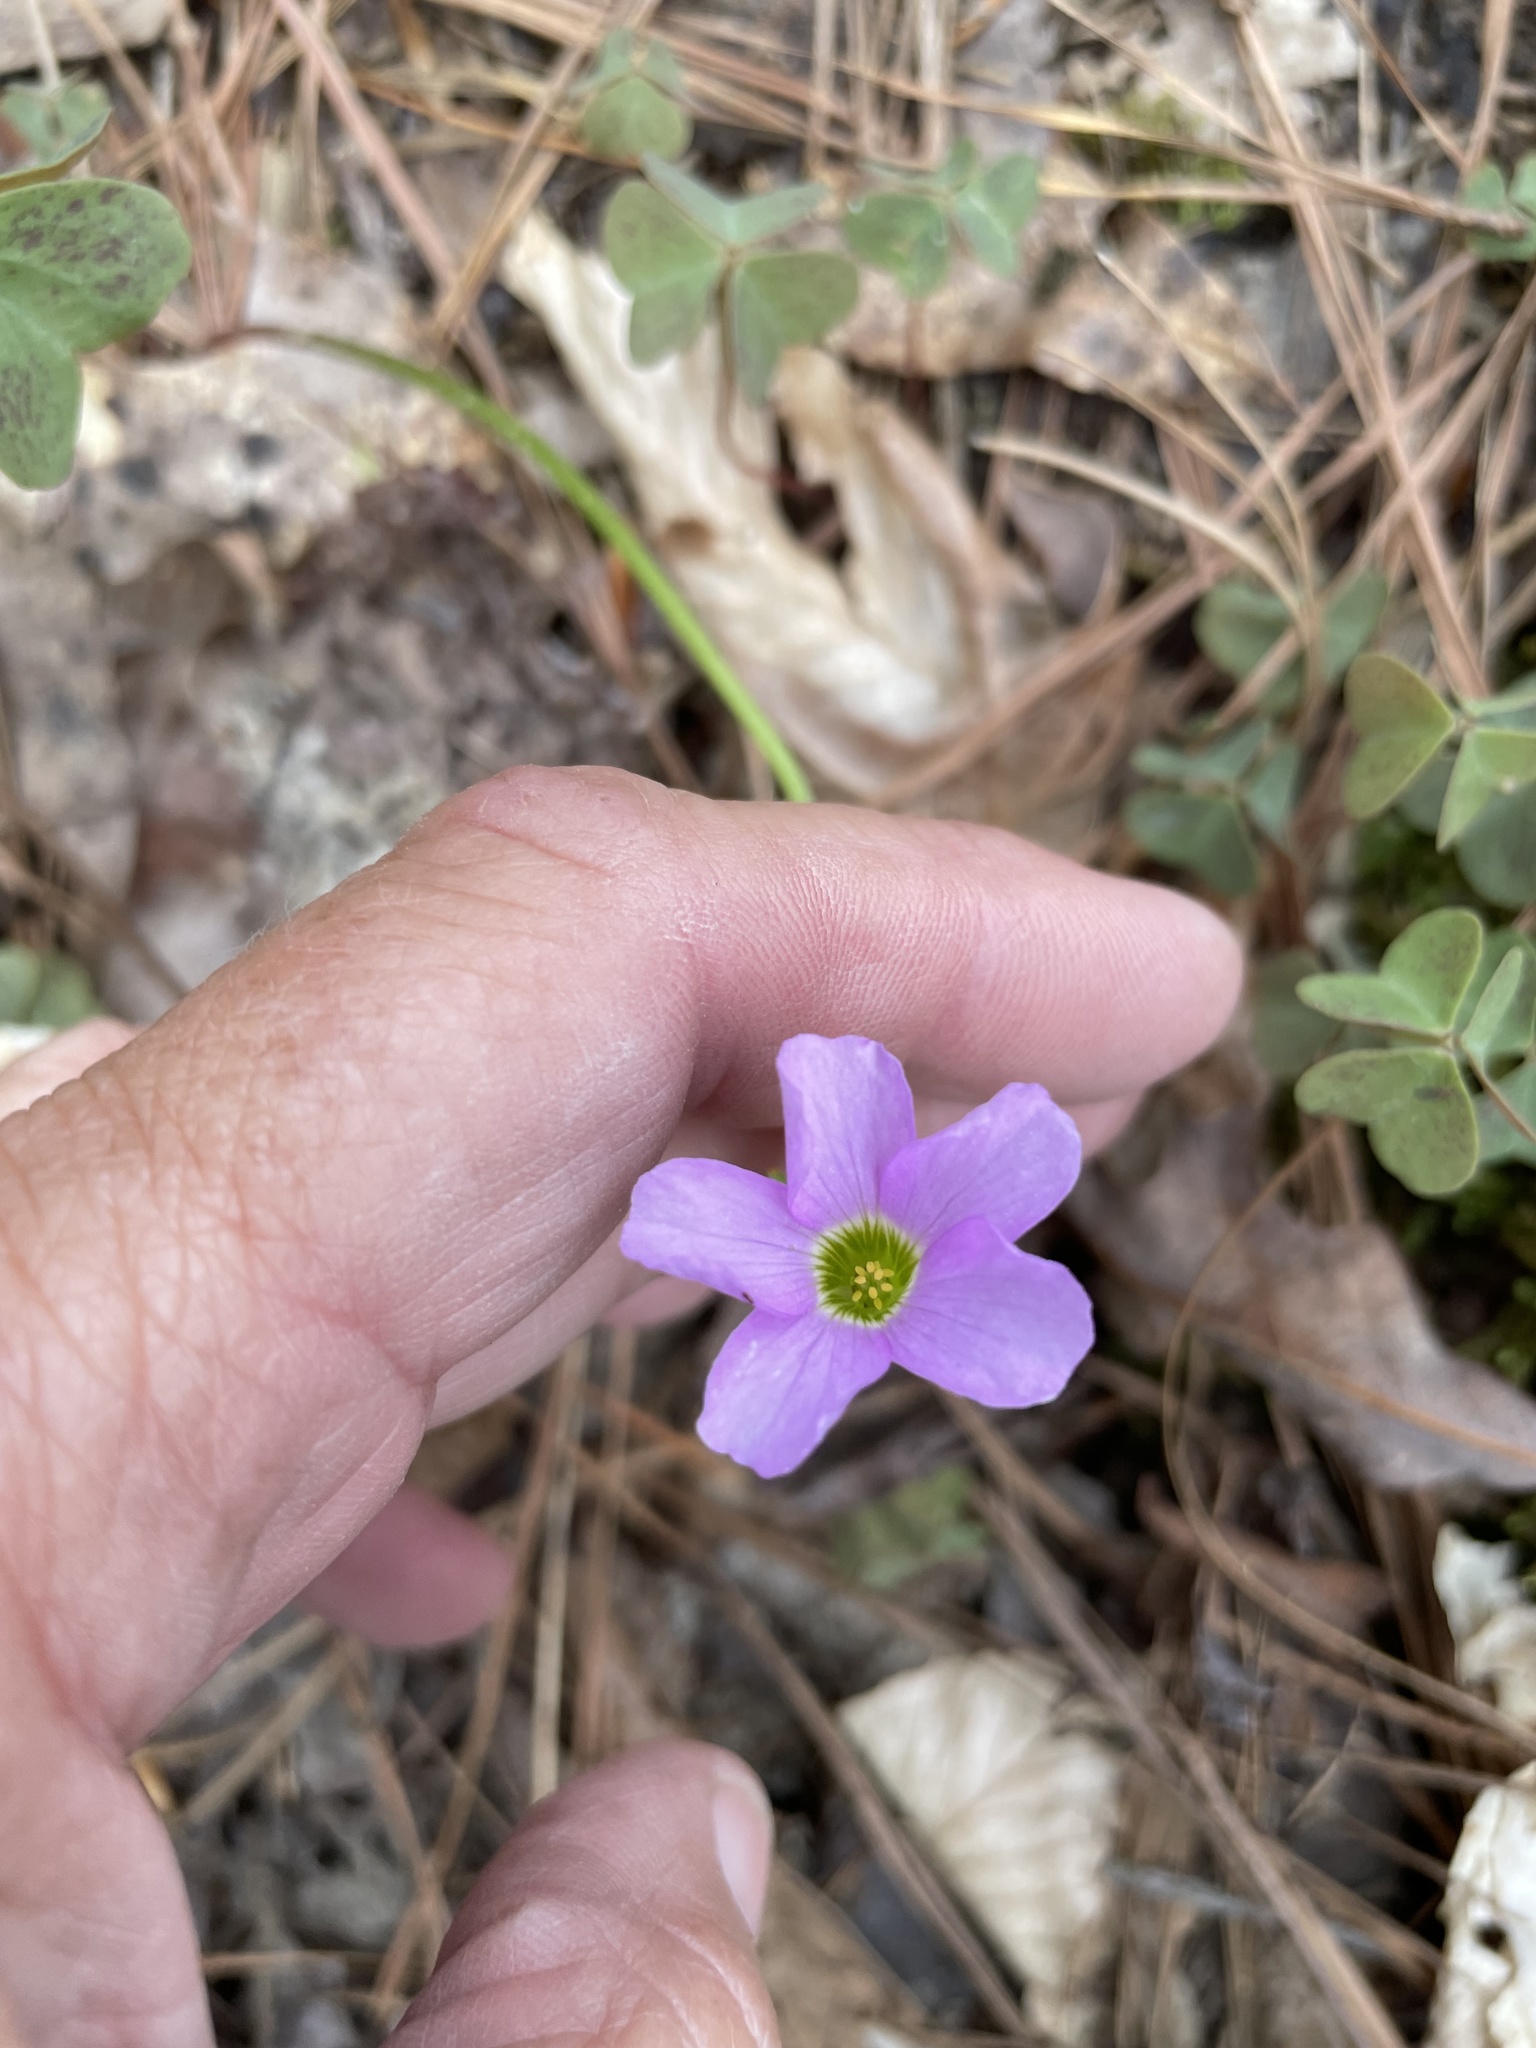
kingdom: Plantae
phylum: Tracheophyta
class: Magnoliopsida
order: Oxalidales
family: Oxalidaceae
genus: Oxalis
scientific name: Oxalis violacea
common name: Violet wood-sorrel
